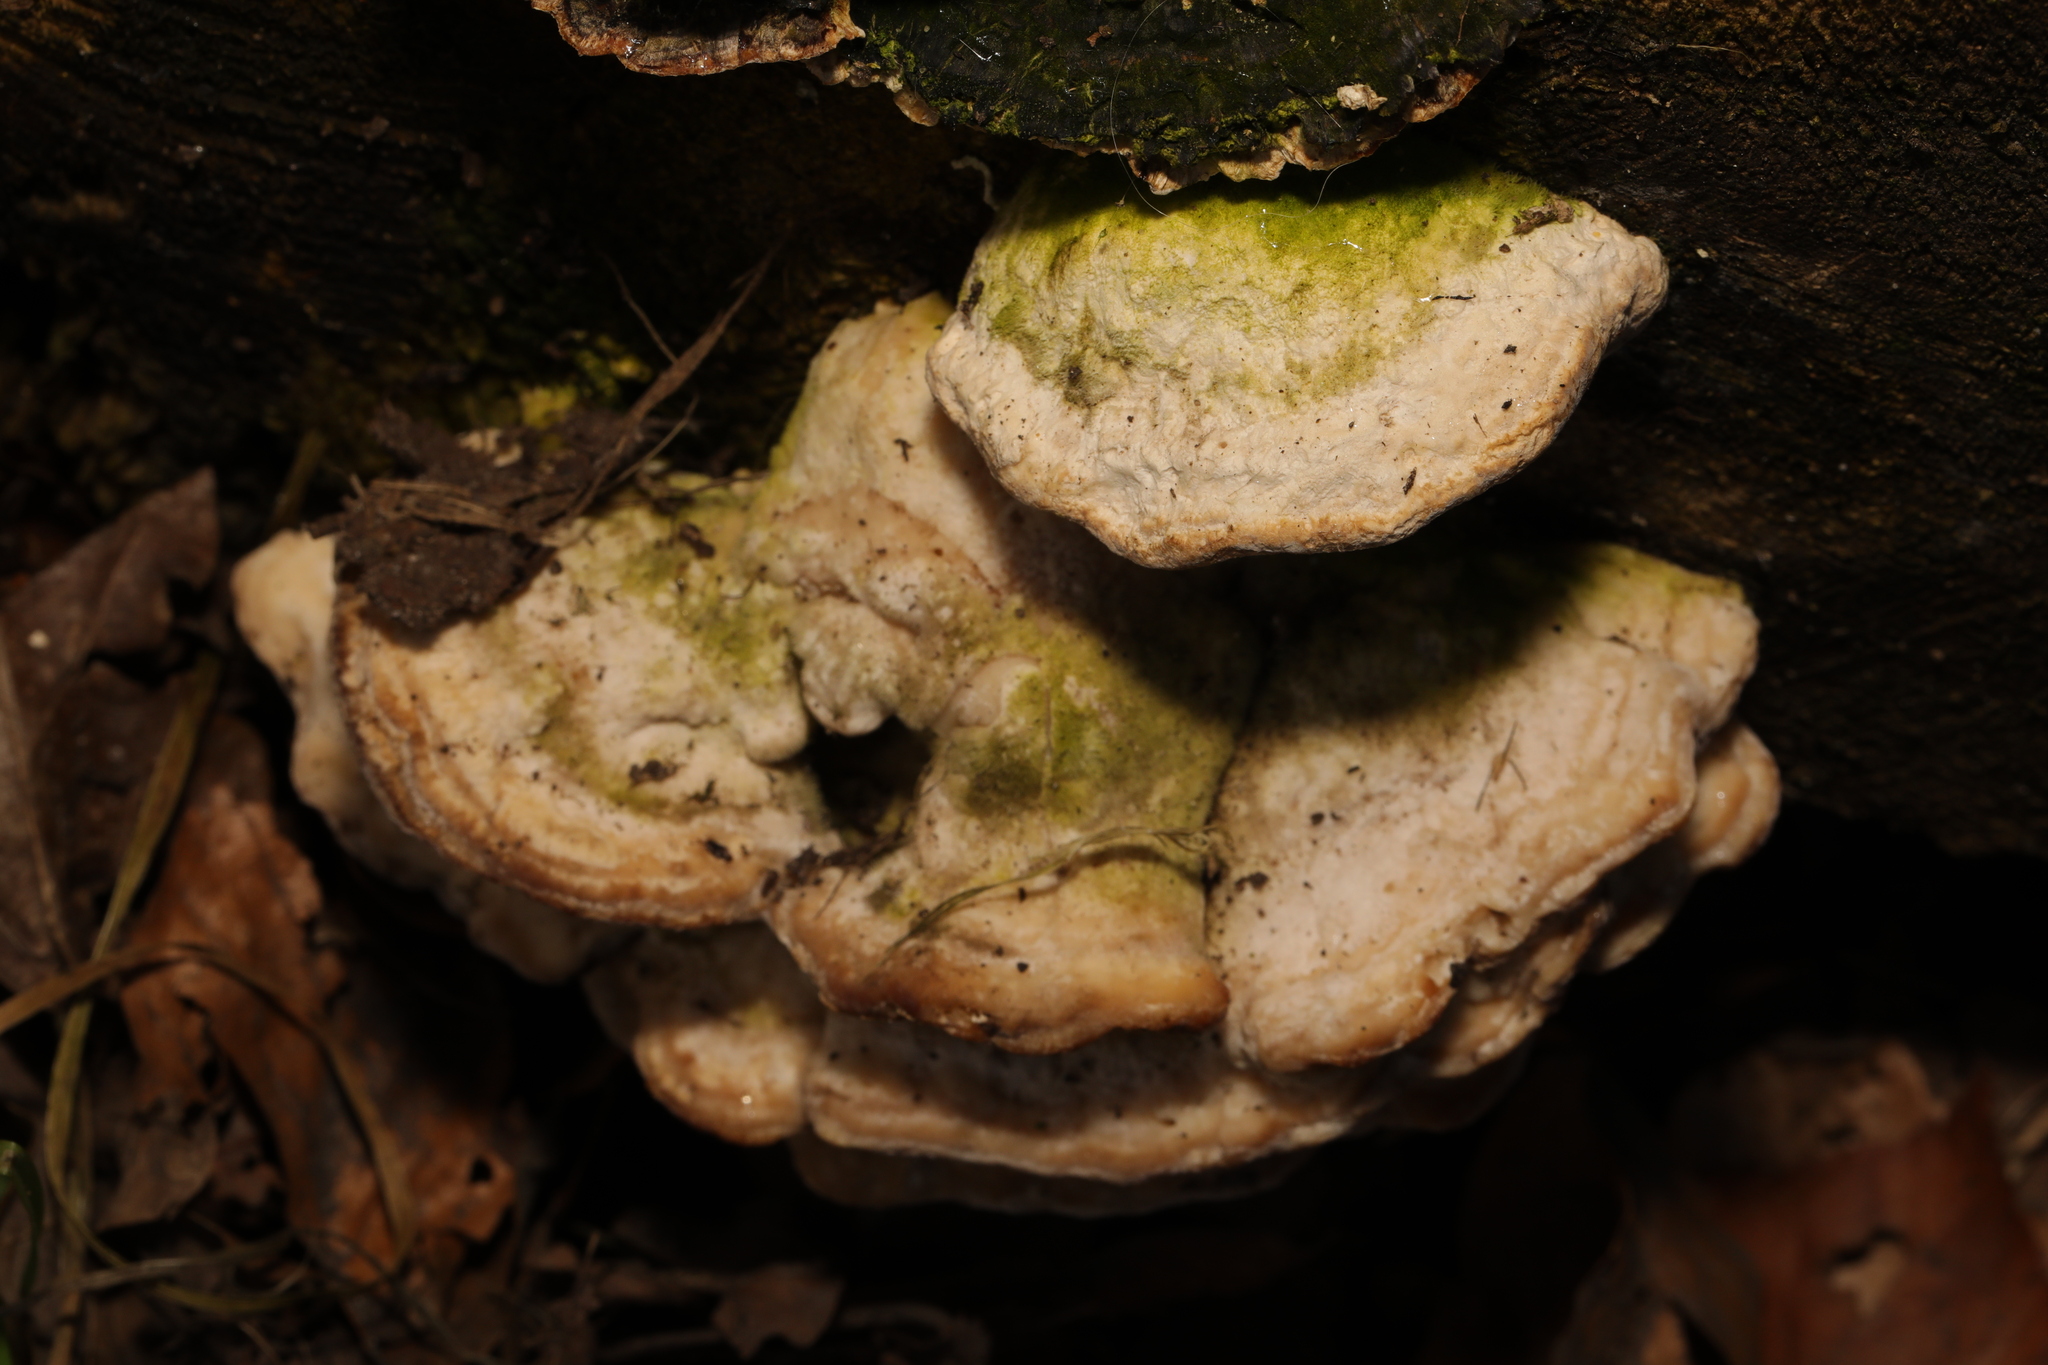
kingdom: Fungi
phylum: Basidiomycota
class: Agaricomycetes
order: Polyporales
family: Polyporaceae
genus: Trametes
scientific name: Trametes gibbosa
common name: Lumpy bracket
